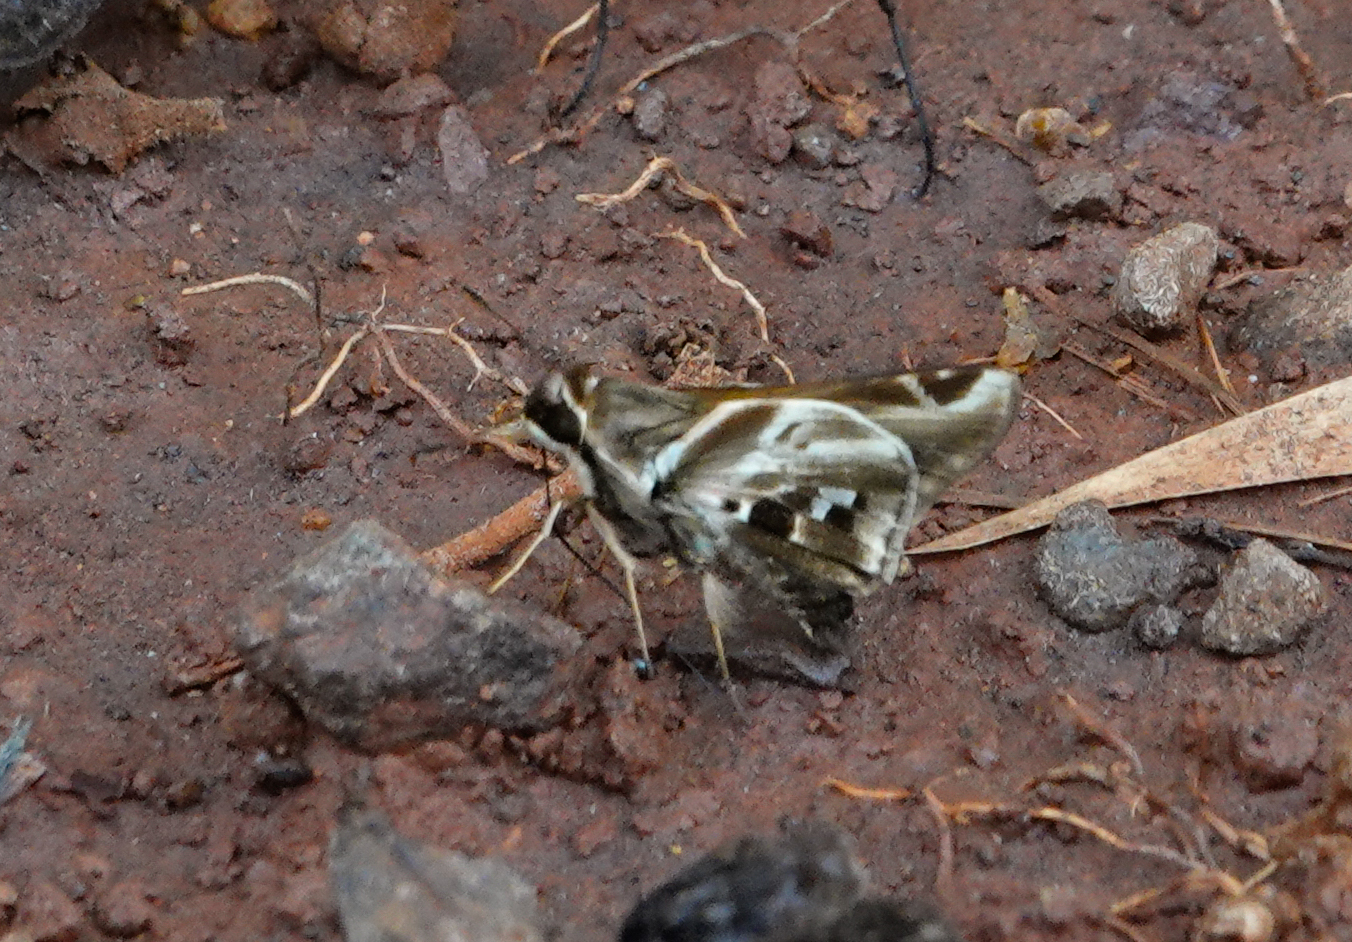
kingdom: Animalia
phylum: Arthropoda
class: Insecta
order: Lepidoptera
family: Hesperiidae
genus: Thespieus
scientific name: Thespieus dalman
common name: Chalk-marked skipper
